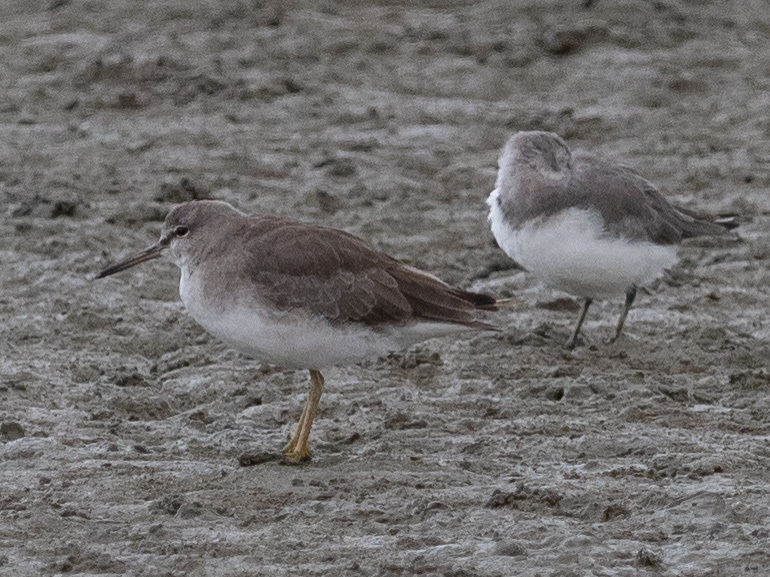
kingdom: Animalia
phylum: Chordata
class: Aves
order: Charadriiformes
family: Scolopacidae
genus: Tringa
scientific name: Tringa brevipes
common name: Grey-tailed tattler
